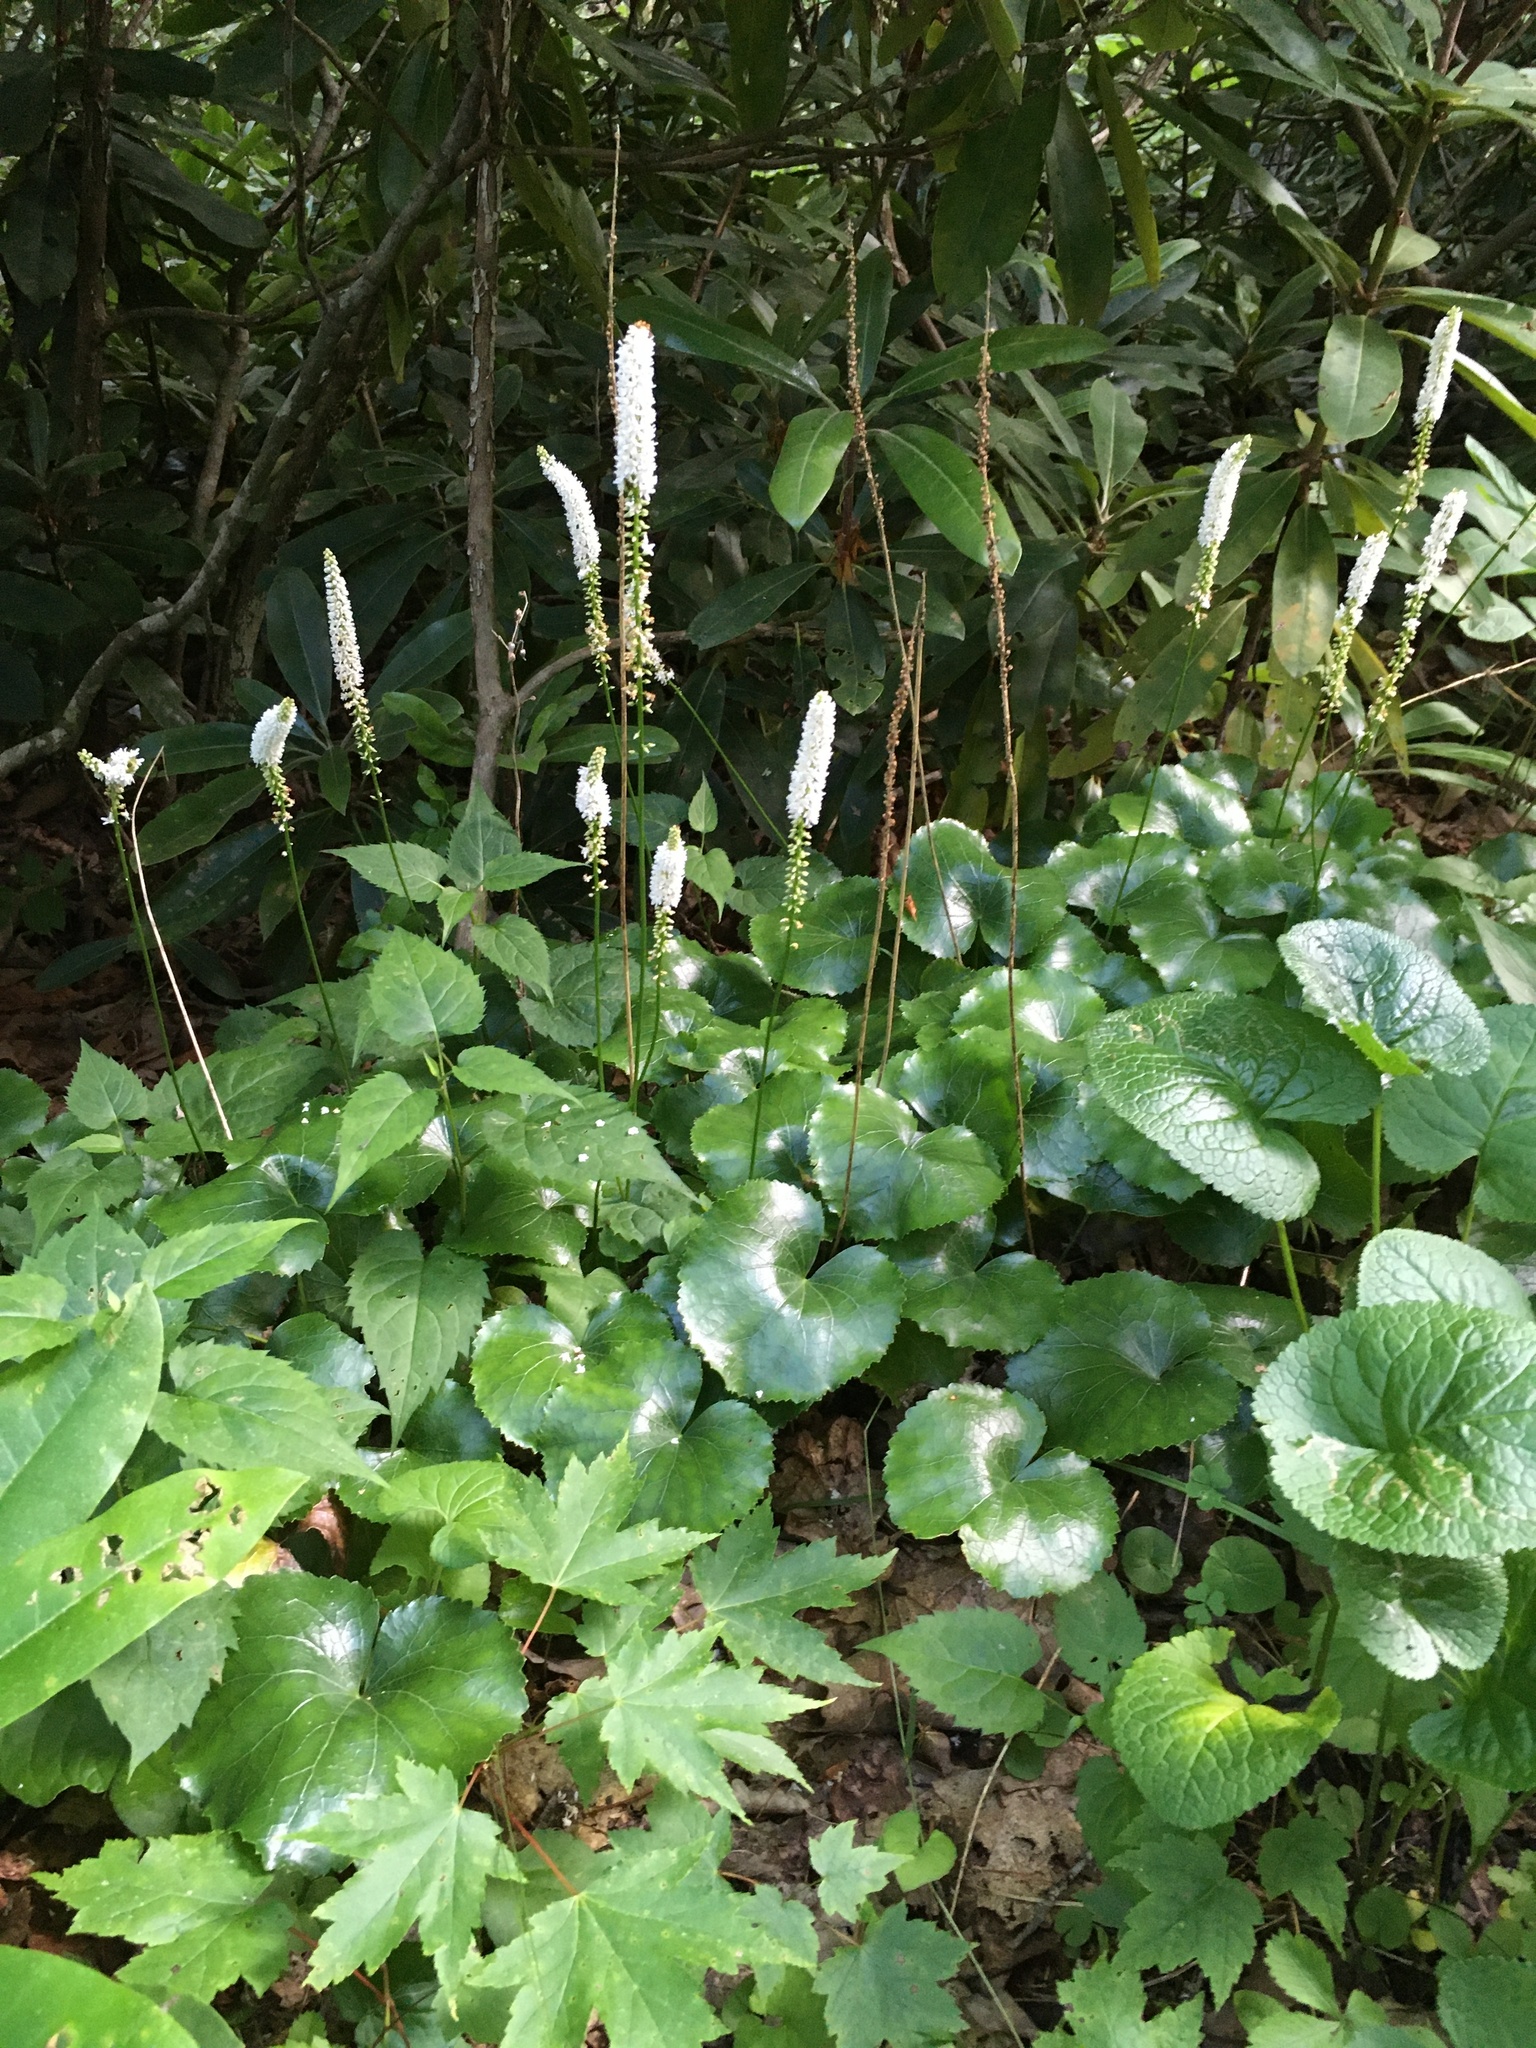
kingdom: Plantae
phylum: Tracheophyta
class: Magnoliopsida
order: Ericales
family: Diapensiaceae
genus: Galax
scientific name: Galax urceolata
